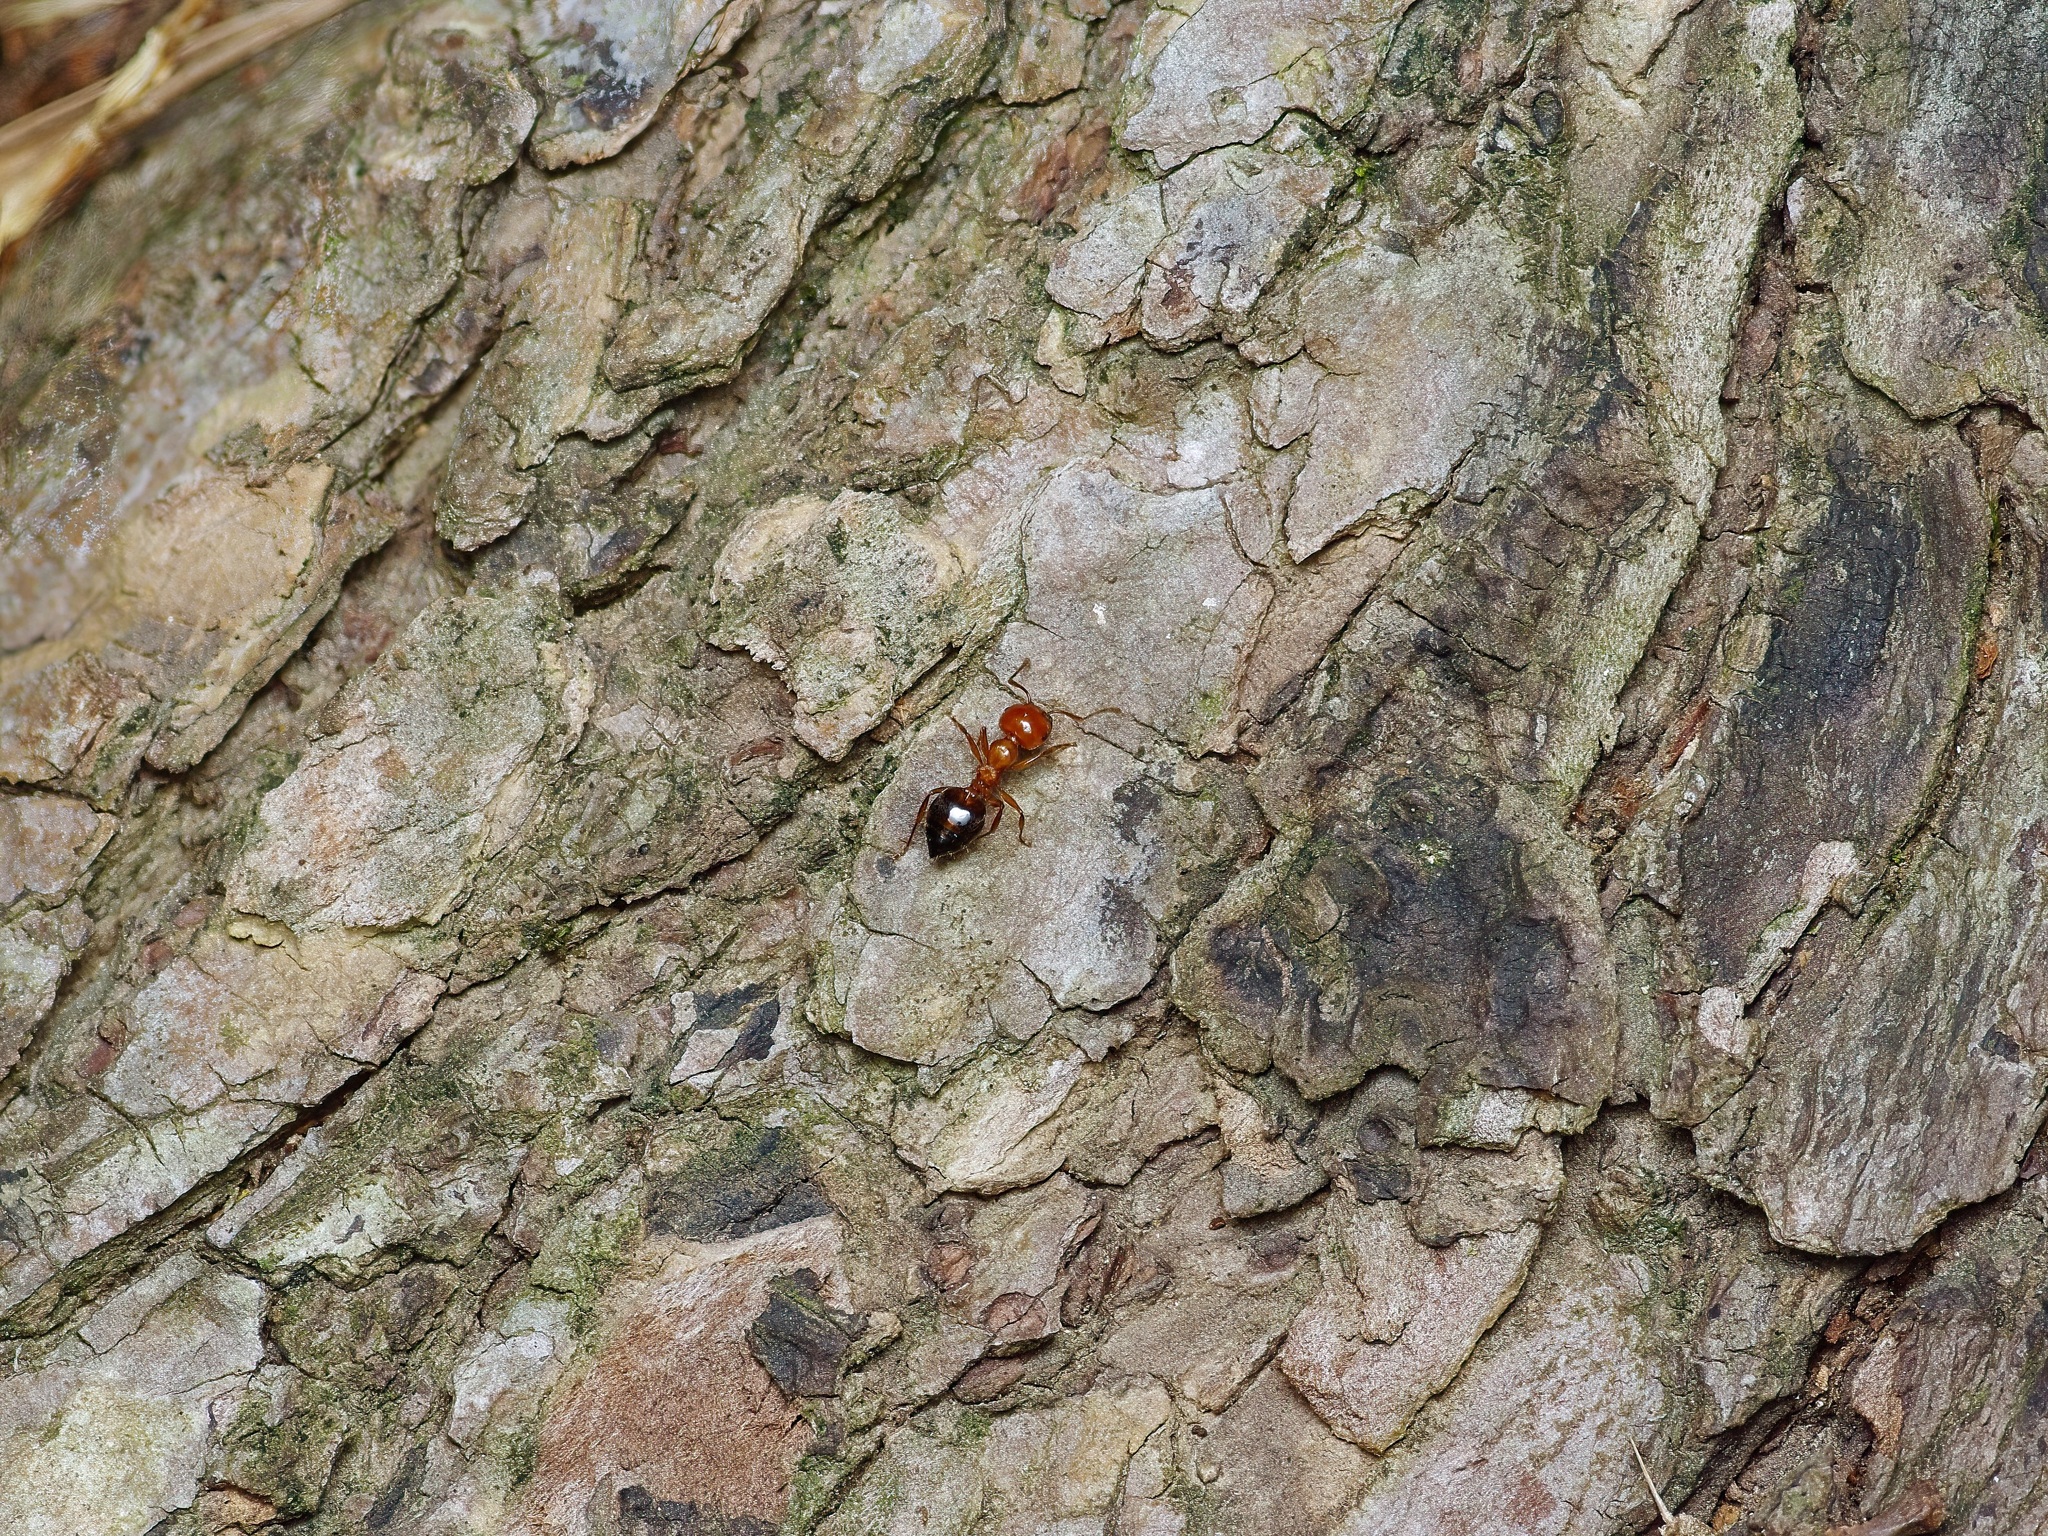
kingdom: Animalia
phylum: Arthropoda
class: Insecta
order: Hymenoptera
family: Formicidae
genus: Crematogaster
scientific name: Crematogaster laeviuscula
